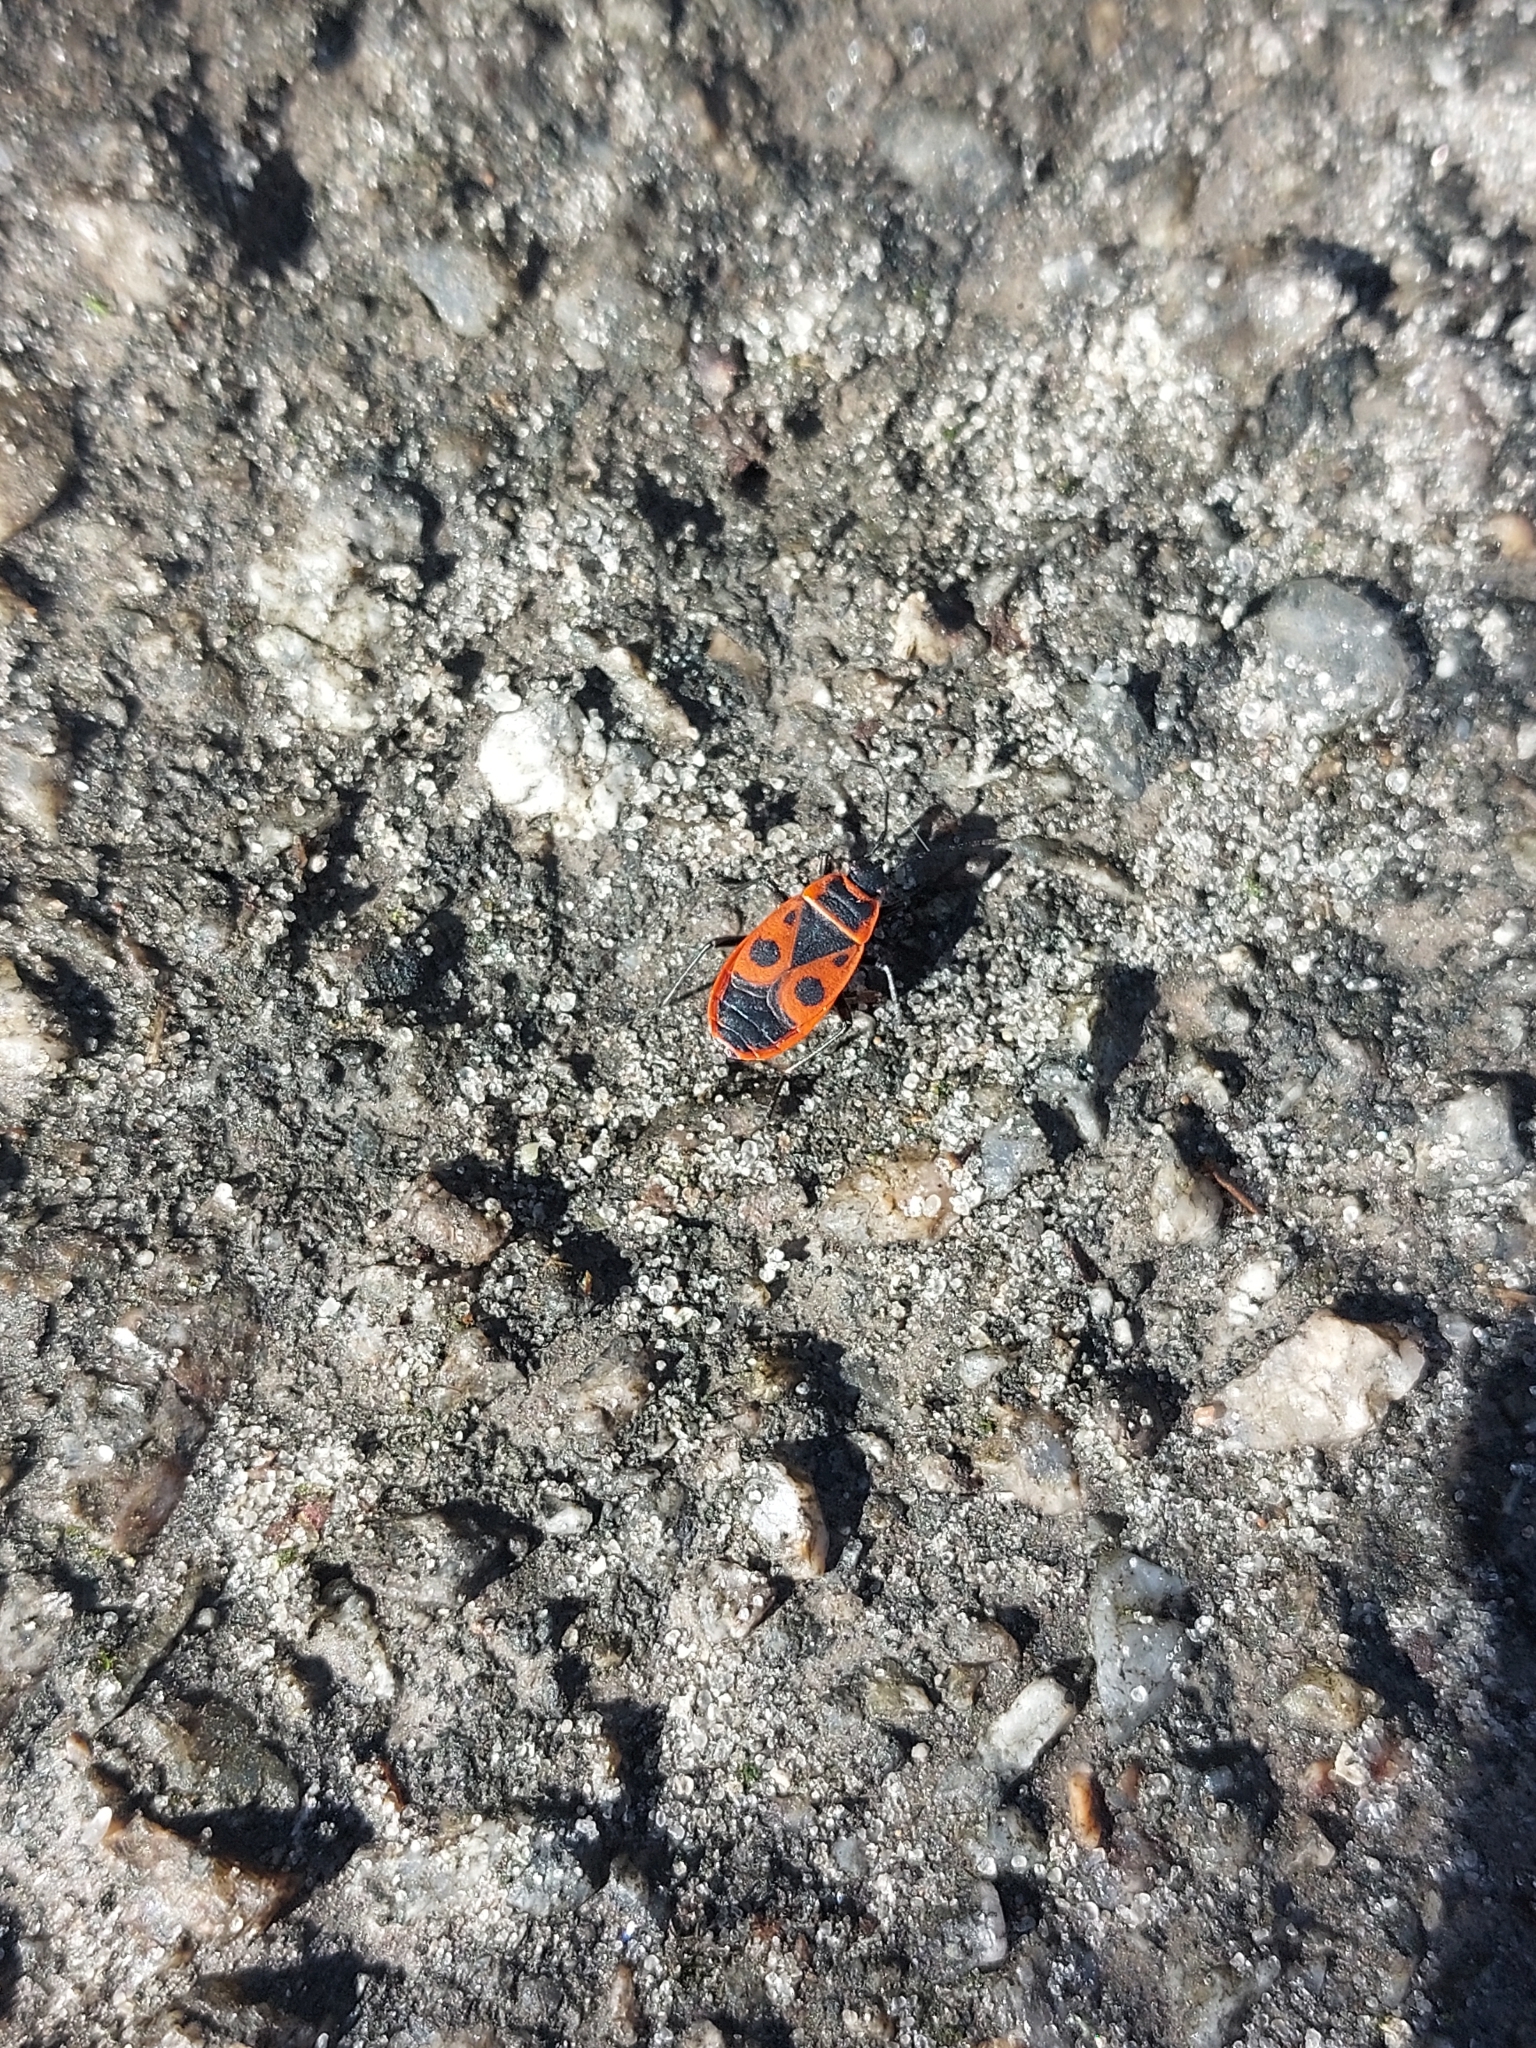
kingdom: Animalia
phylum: Arthropoda
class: Insecta
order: Hemiptera
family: Pyrrhocoridae
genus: Pyrrhocoris
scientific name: Pyrrhocoris apterus
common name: Firebug
